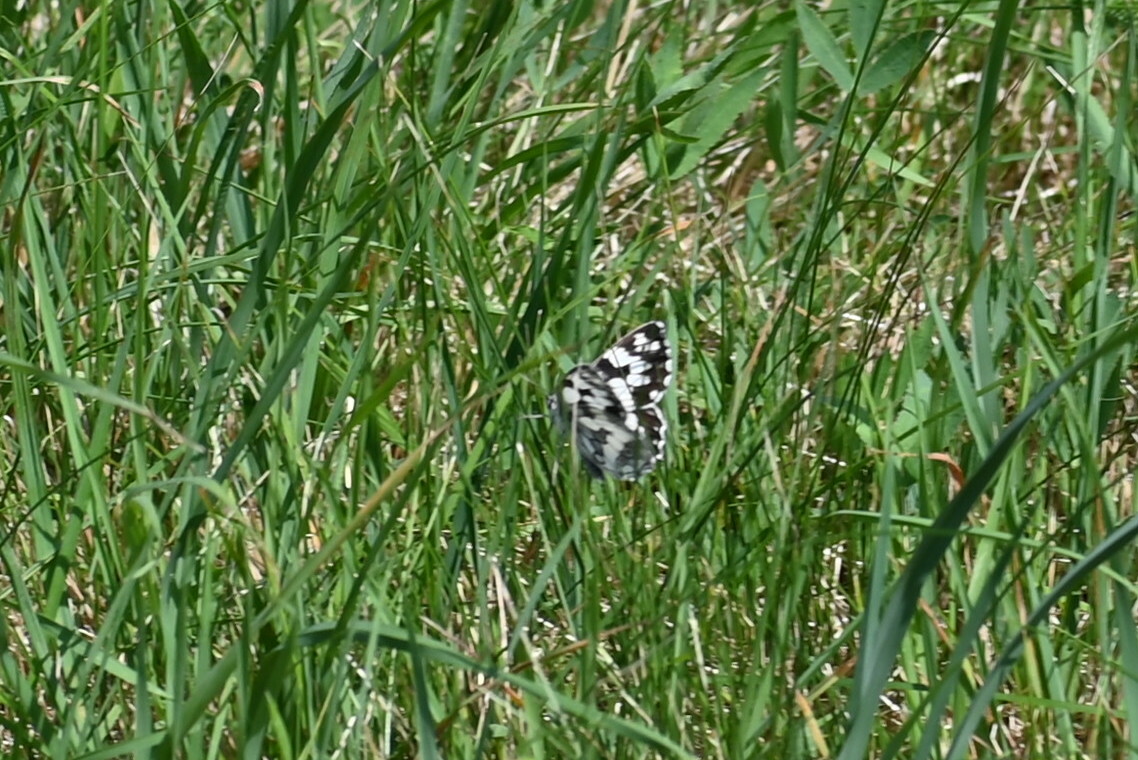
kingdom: Animalia
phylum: Arthropoda
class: Insecta
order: Lepidoptera
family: Nymphalidae
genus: Melanargia
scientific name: Melanargia galathea
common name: Marbled white
